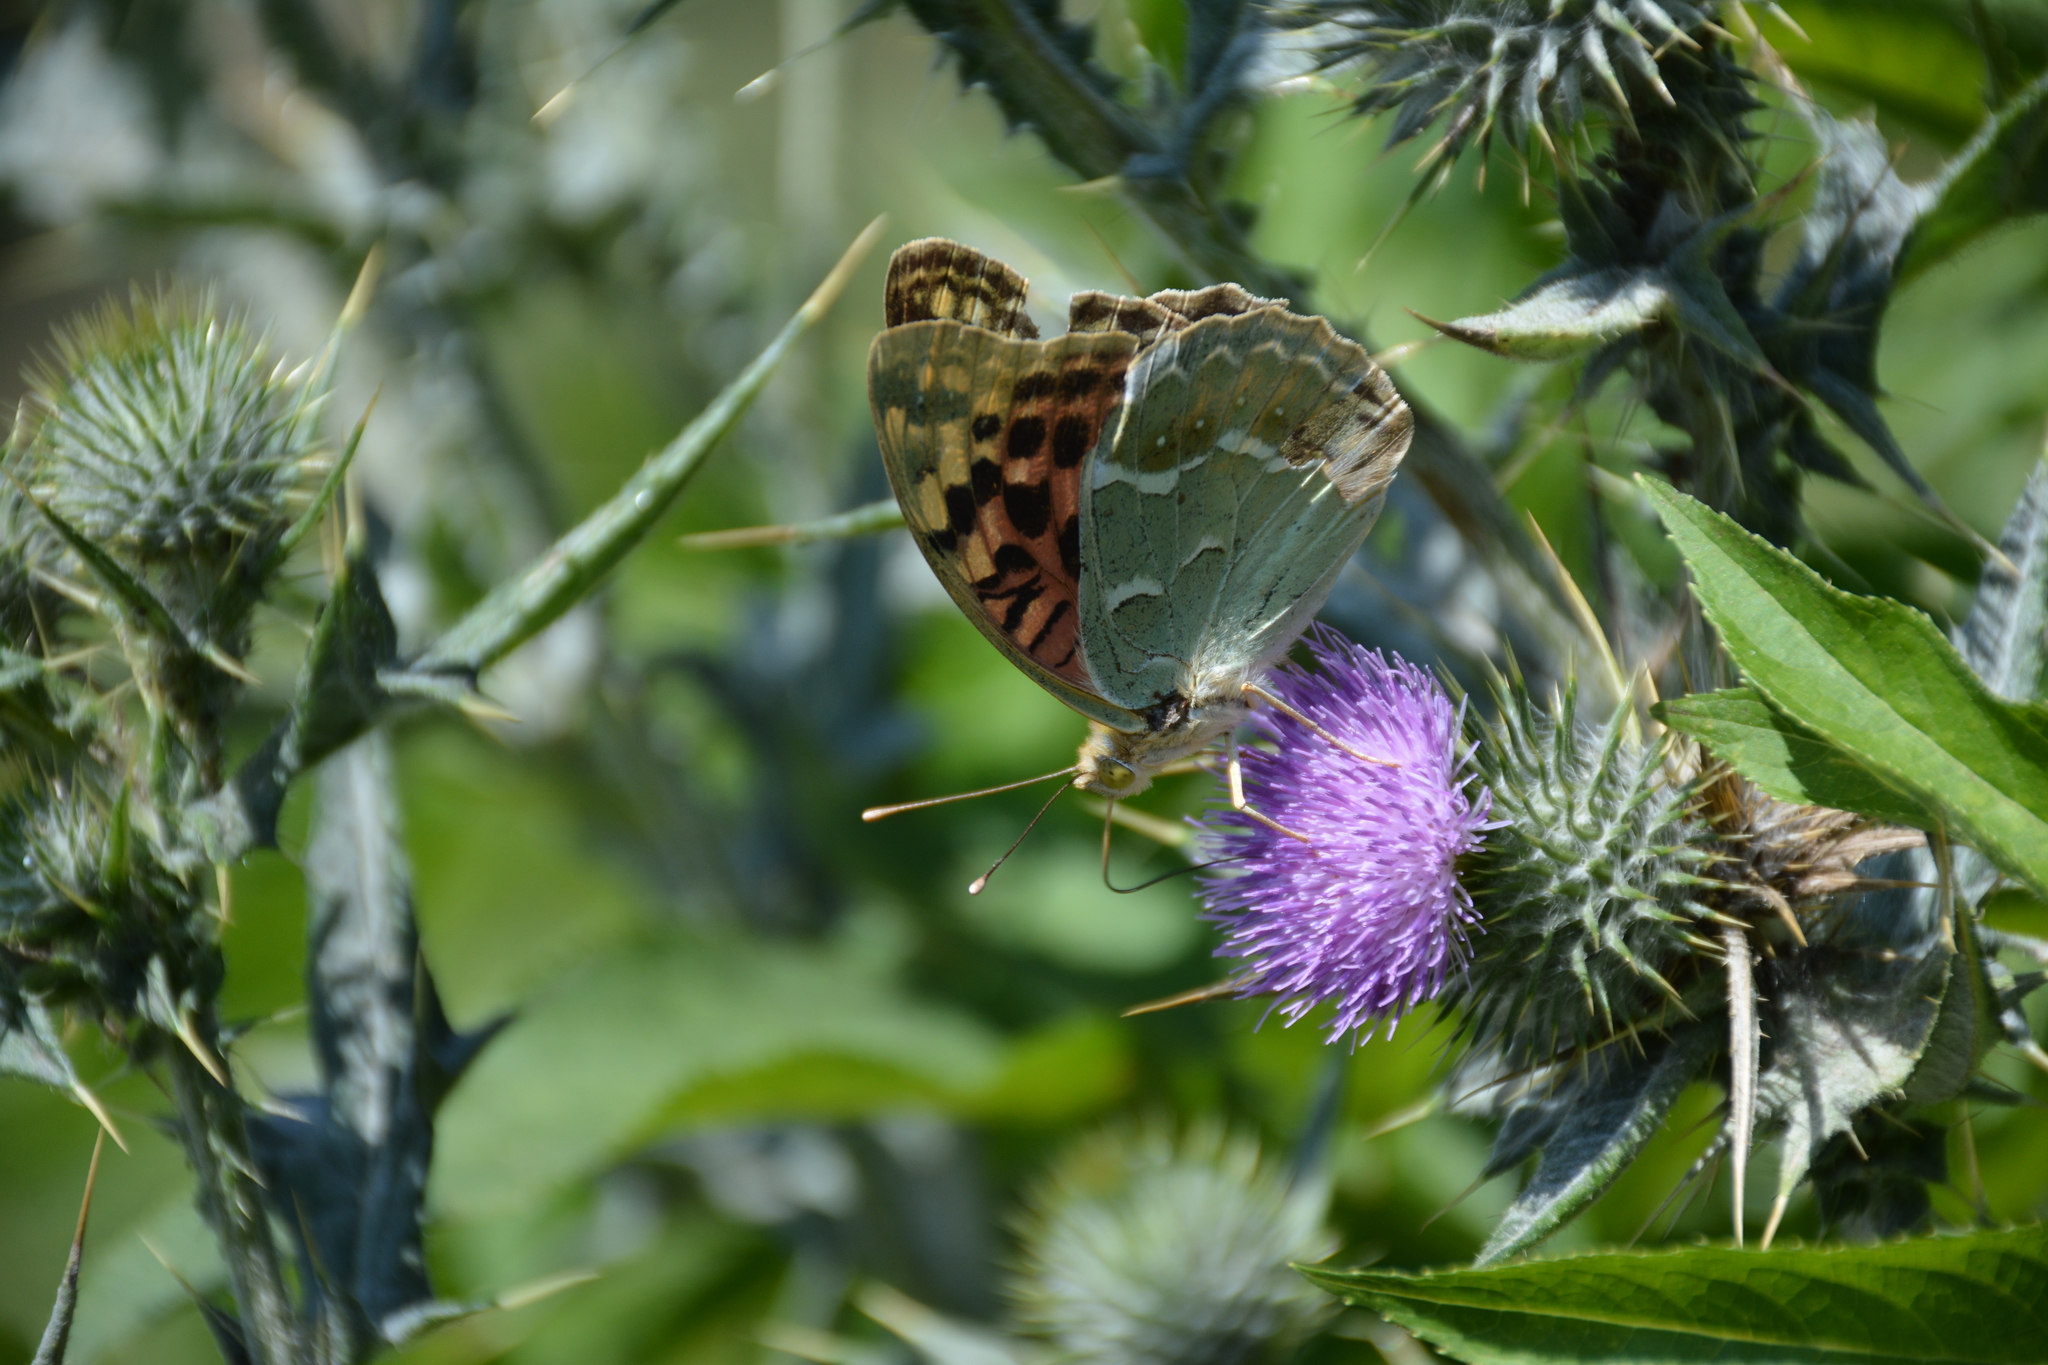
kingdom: Animalia
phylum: Arthropoda
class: Insecta
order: Lepidoptera
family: Nymphalidae
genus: Damora
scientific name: Damora pandora
